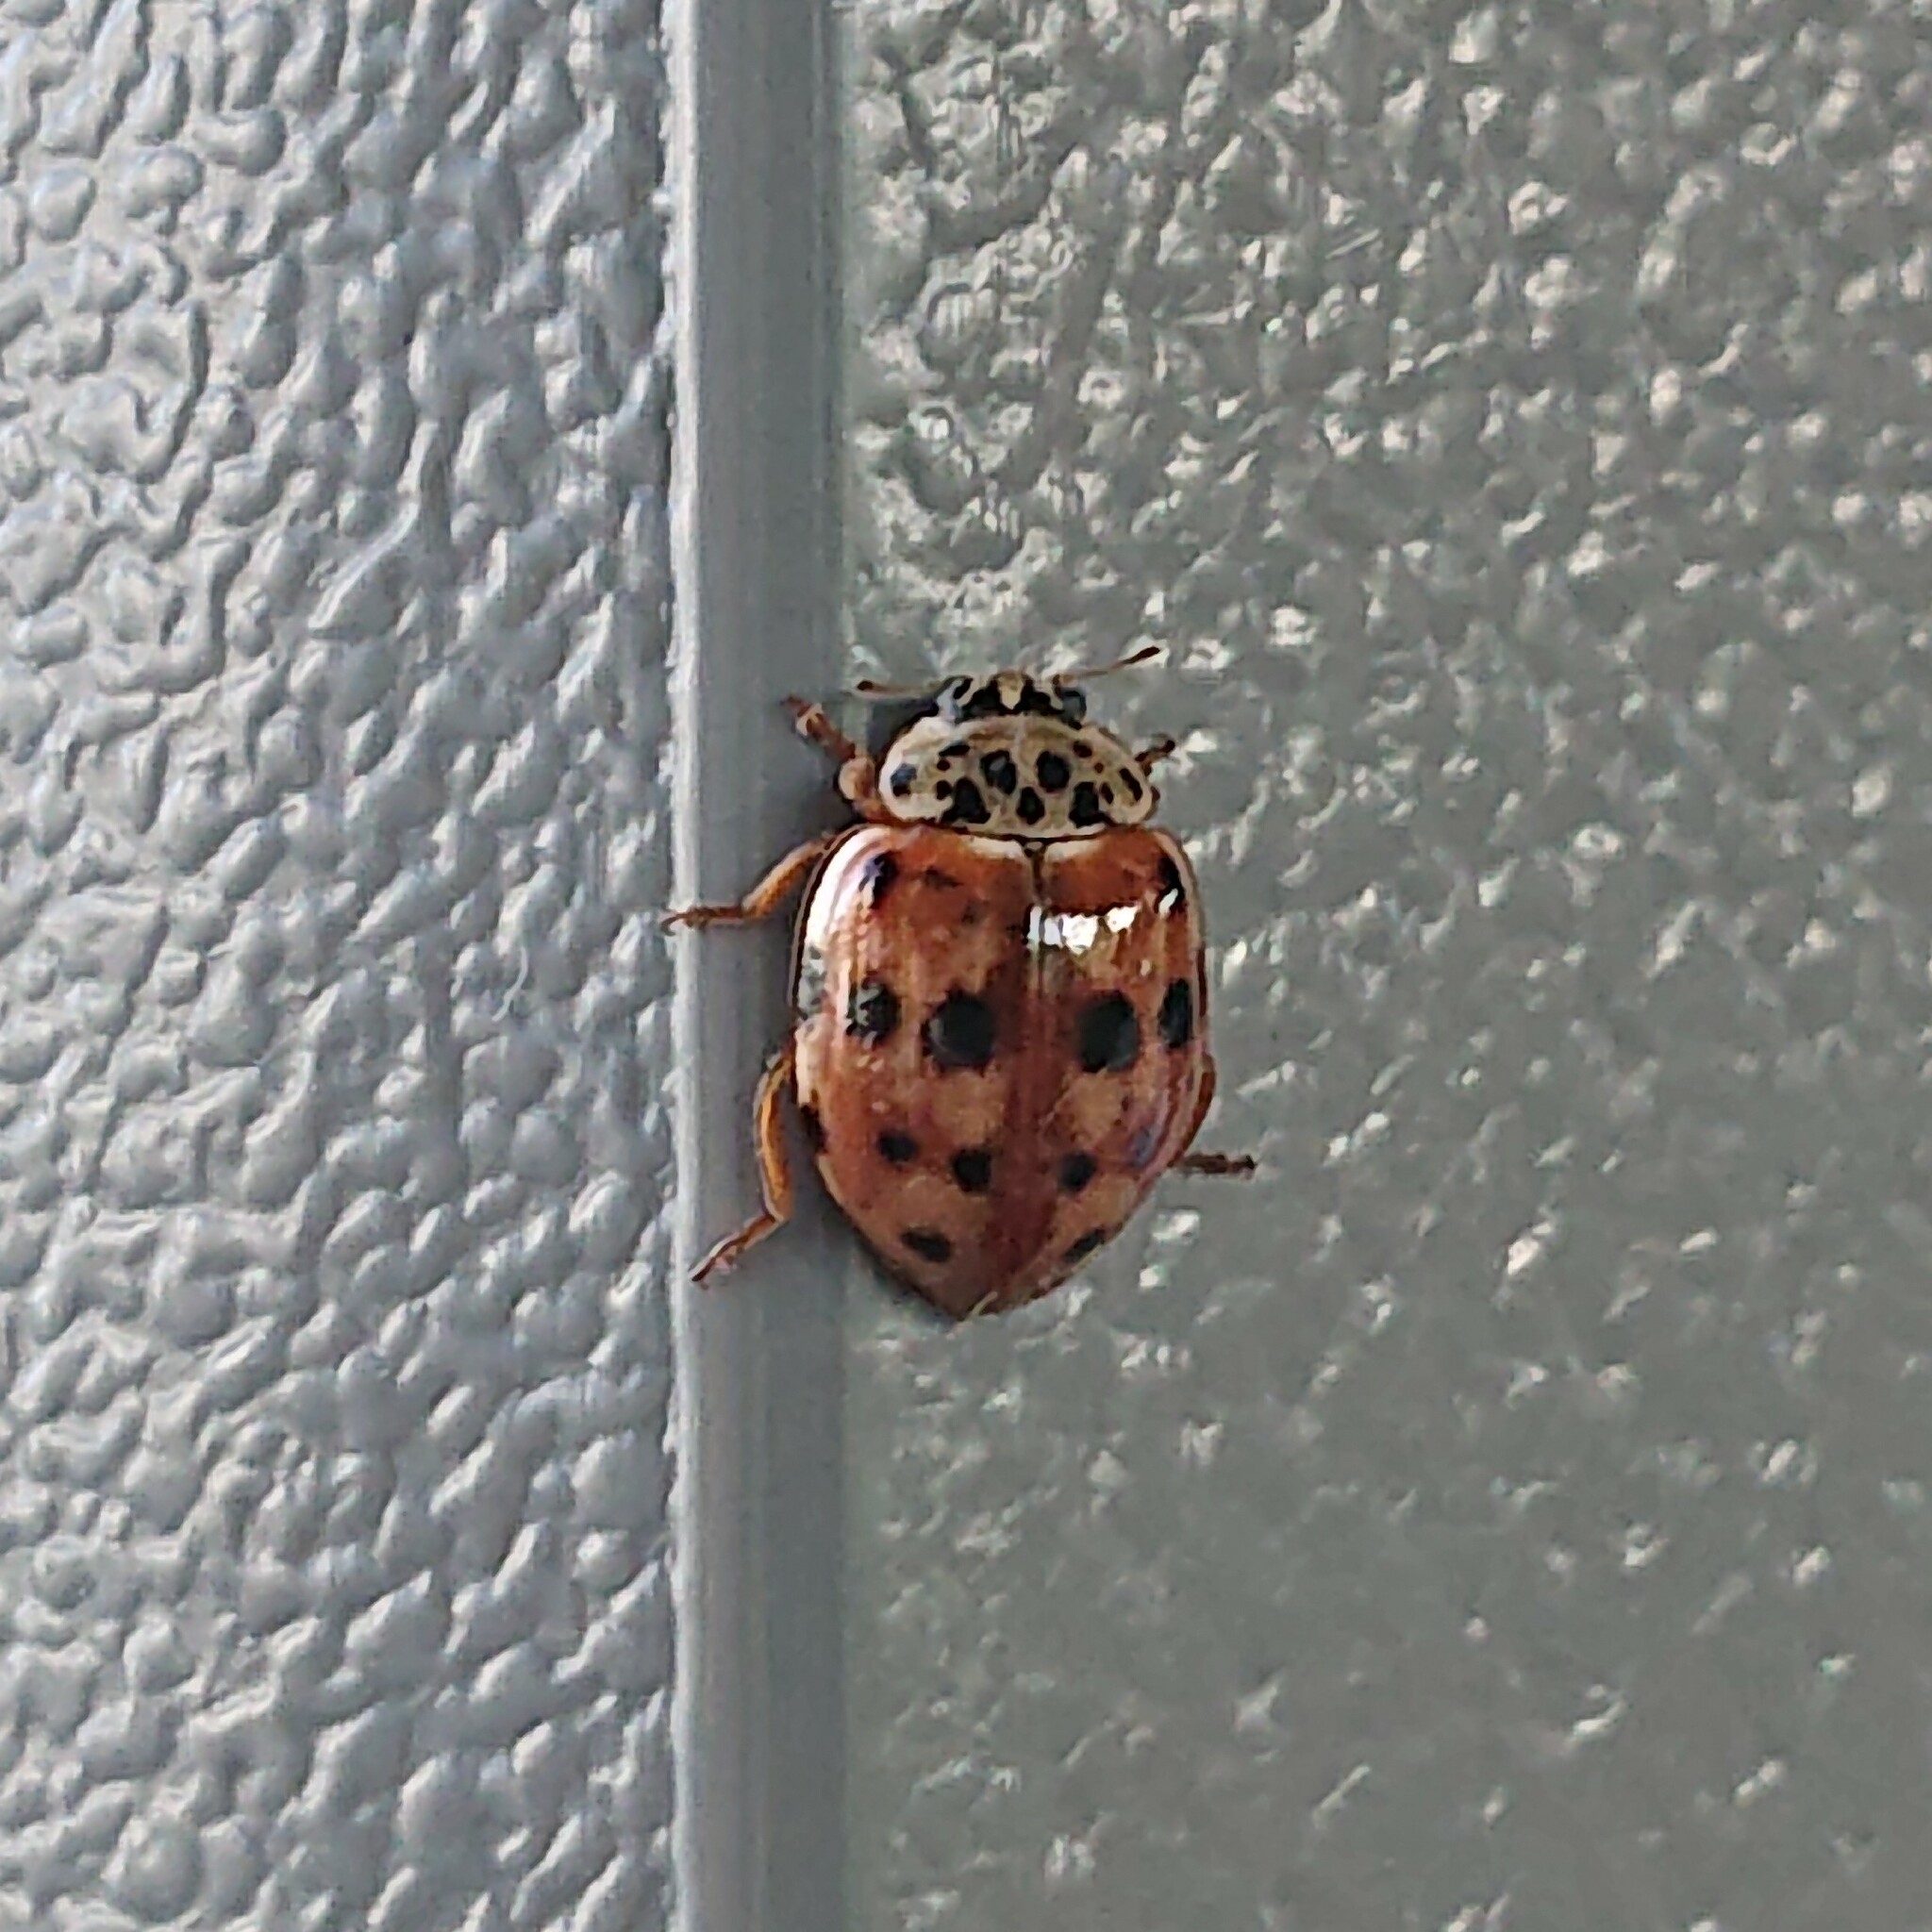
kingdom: Animalia
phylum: Arthropoda
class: Insecta
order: Coleoptera
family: Coccinellidae
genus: Harmonia
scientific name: Harmonia quadripunctata
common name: Cream-streaked ladybird
